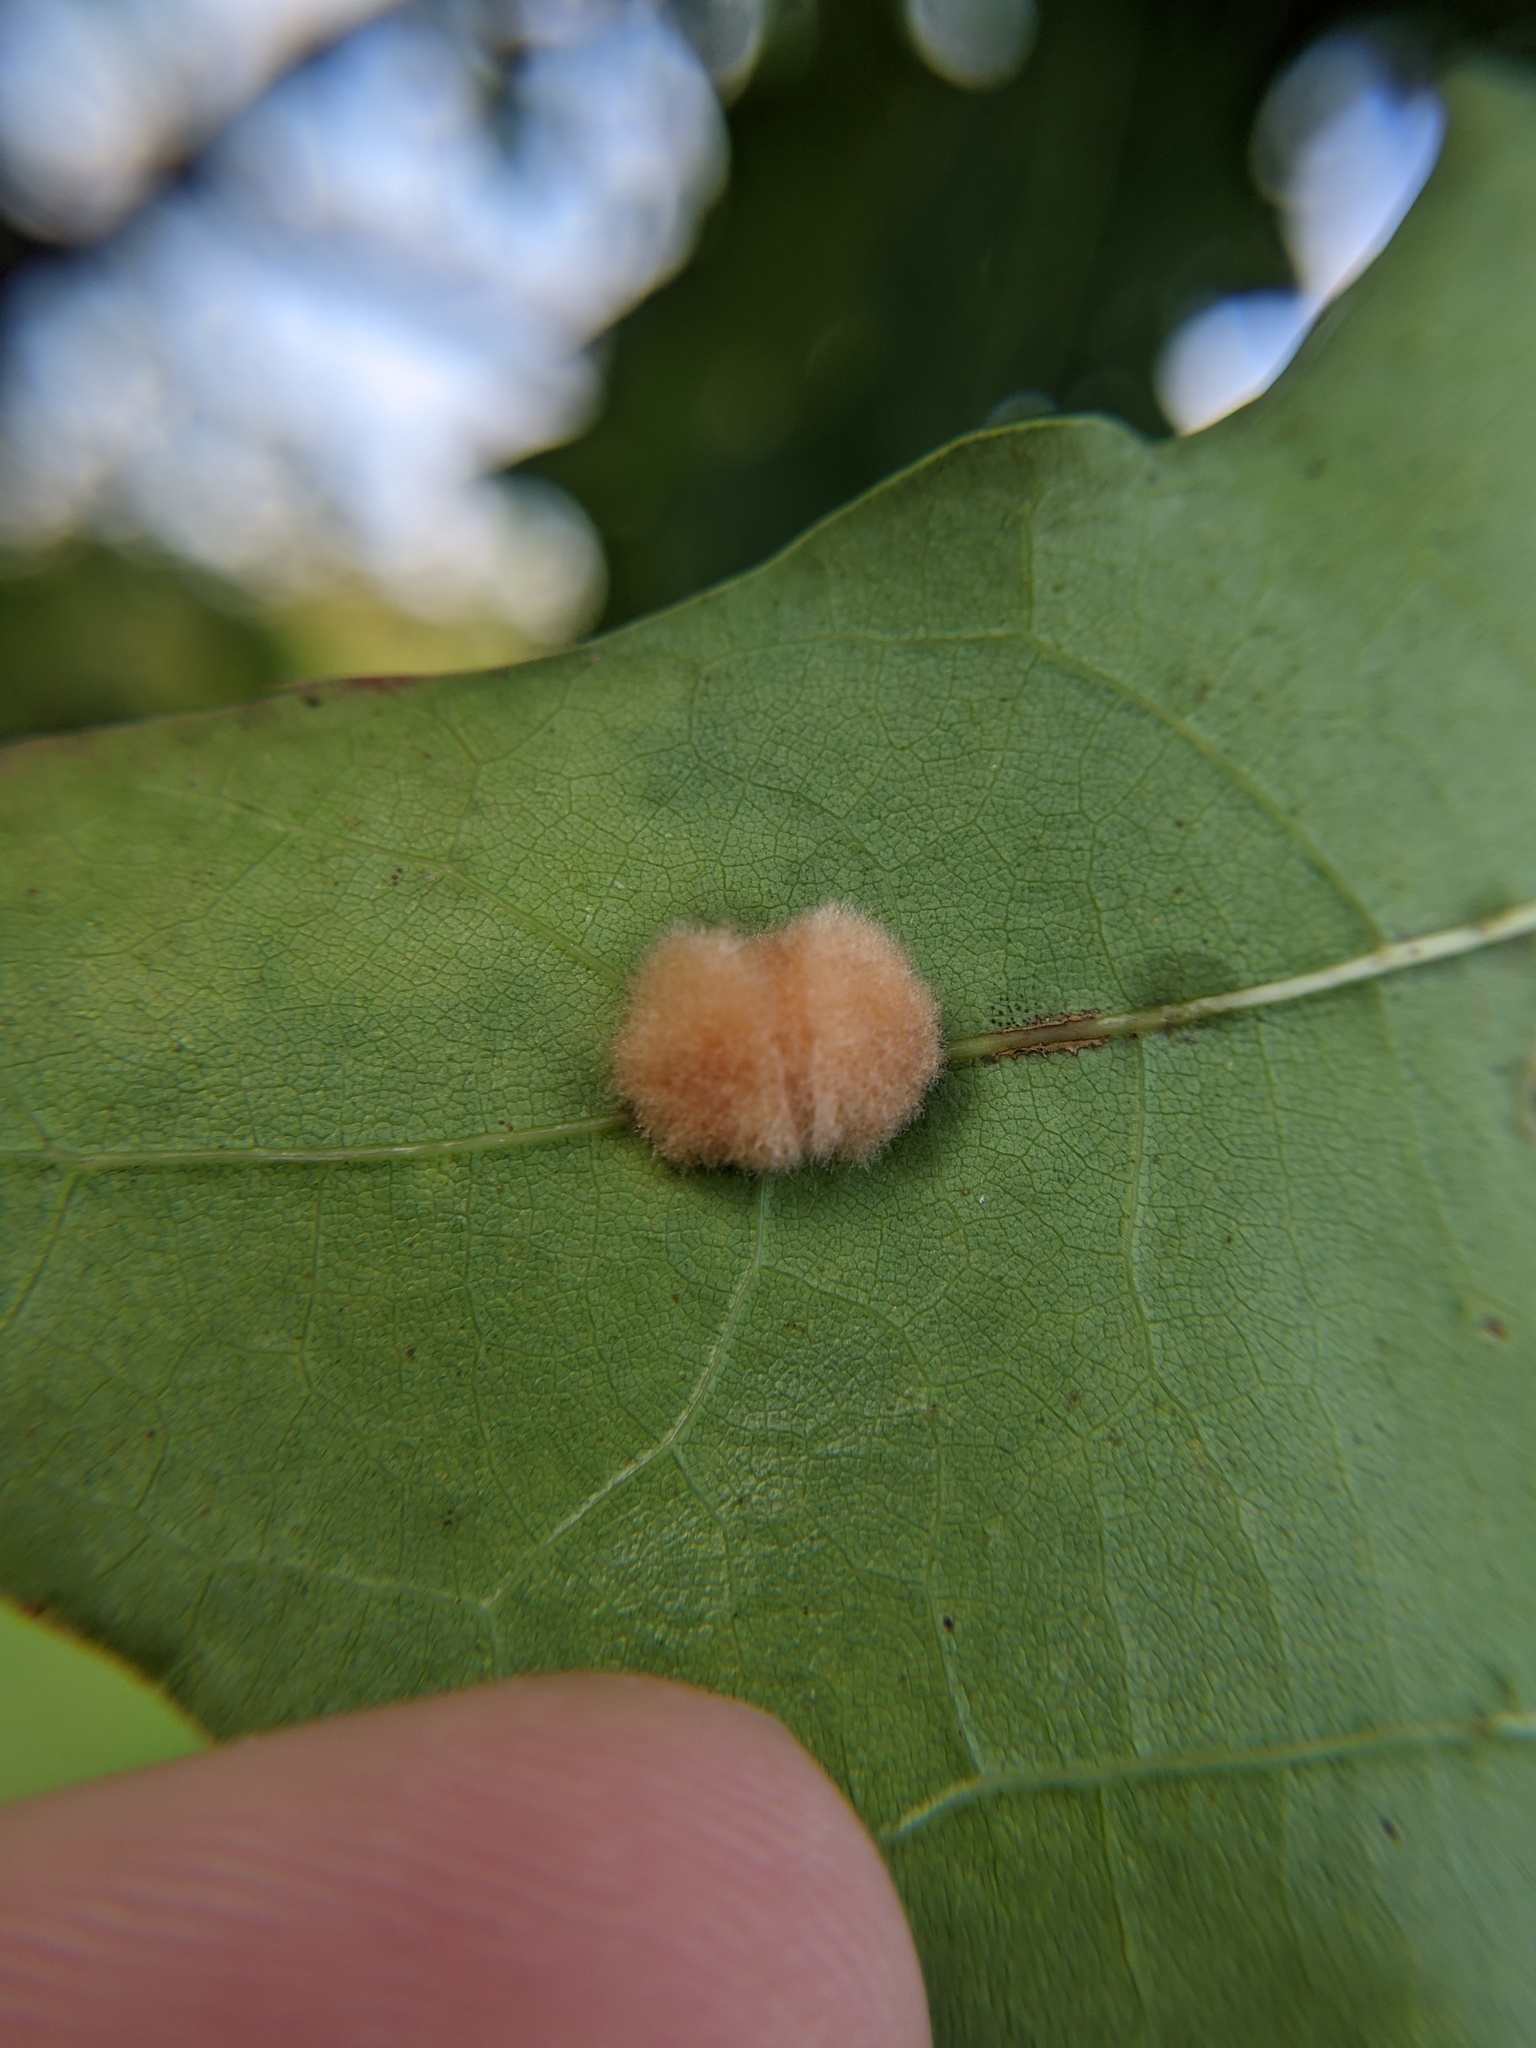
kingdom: Animalia
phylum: Arthropoda
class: Insecta
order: Hymenoptera
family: Cynipidae
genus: Callirhytis
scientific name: Callirhytis
